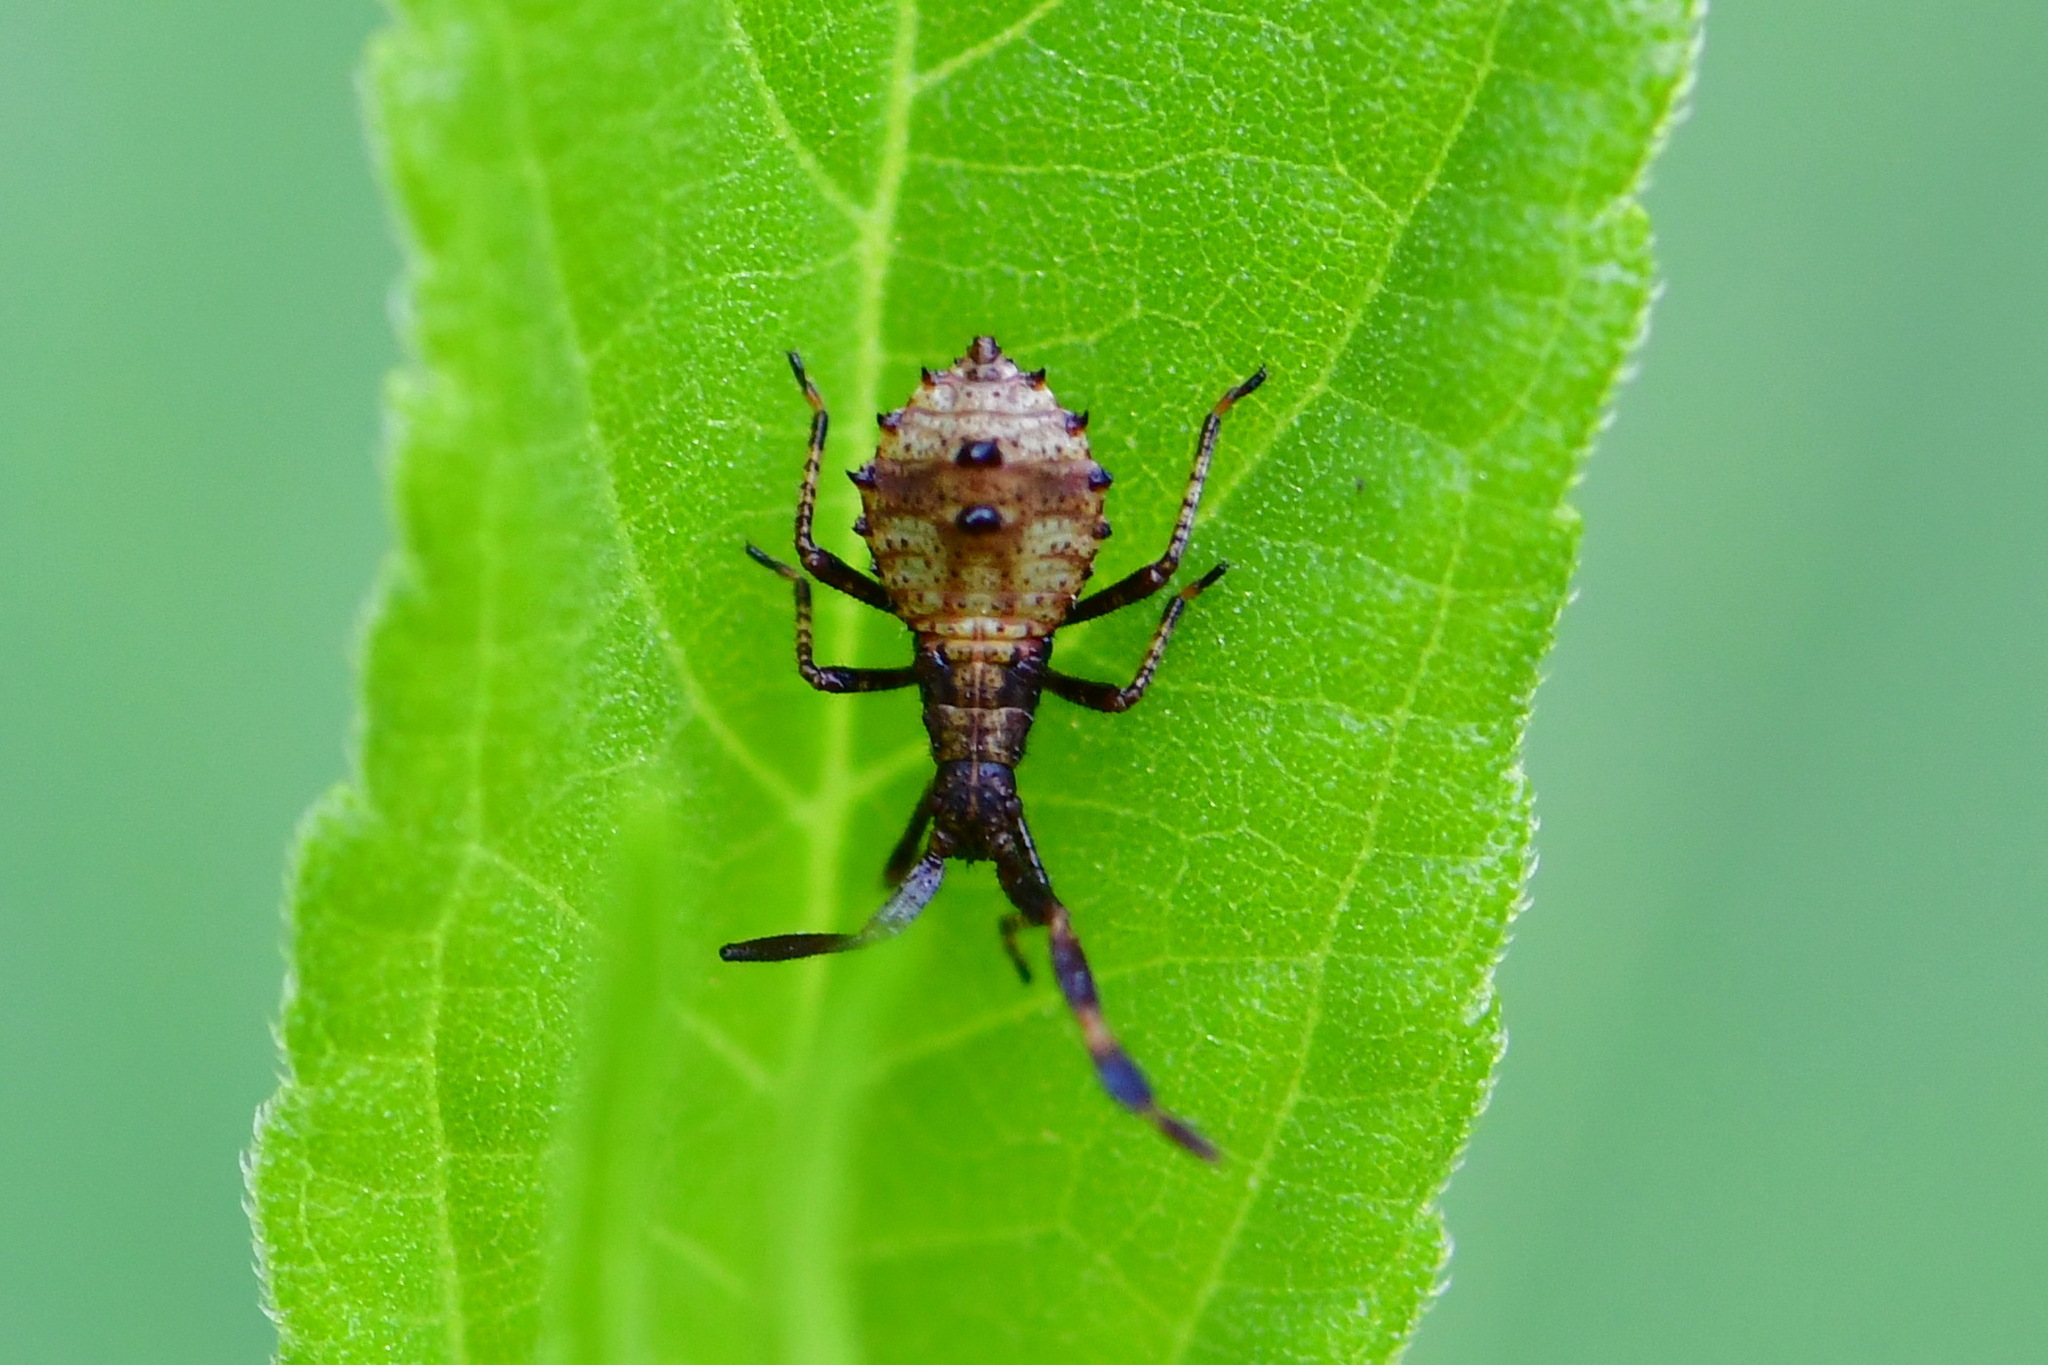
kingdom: Animalia
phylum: Arthropoda
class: Insecta
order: Hemiptera
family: Coreidae
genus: Coreus
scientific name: Coreus marginatus
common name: Dock bug
